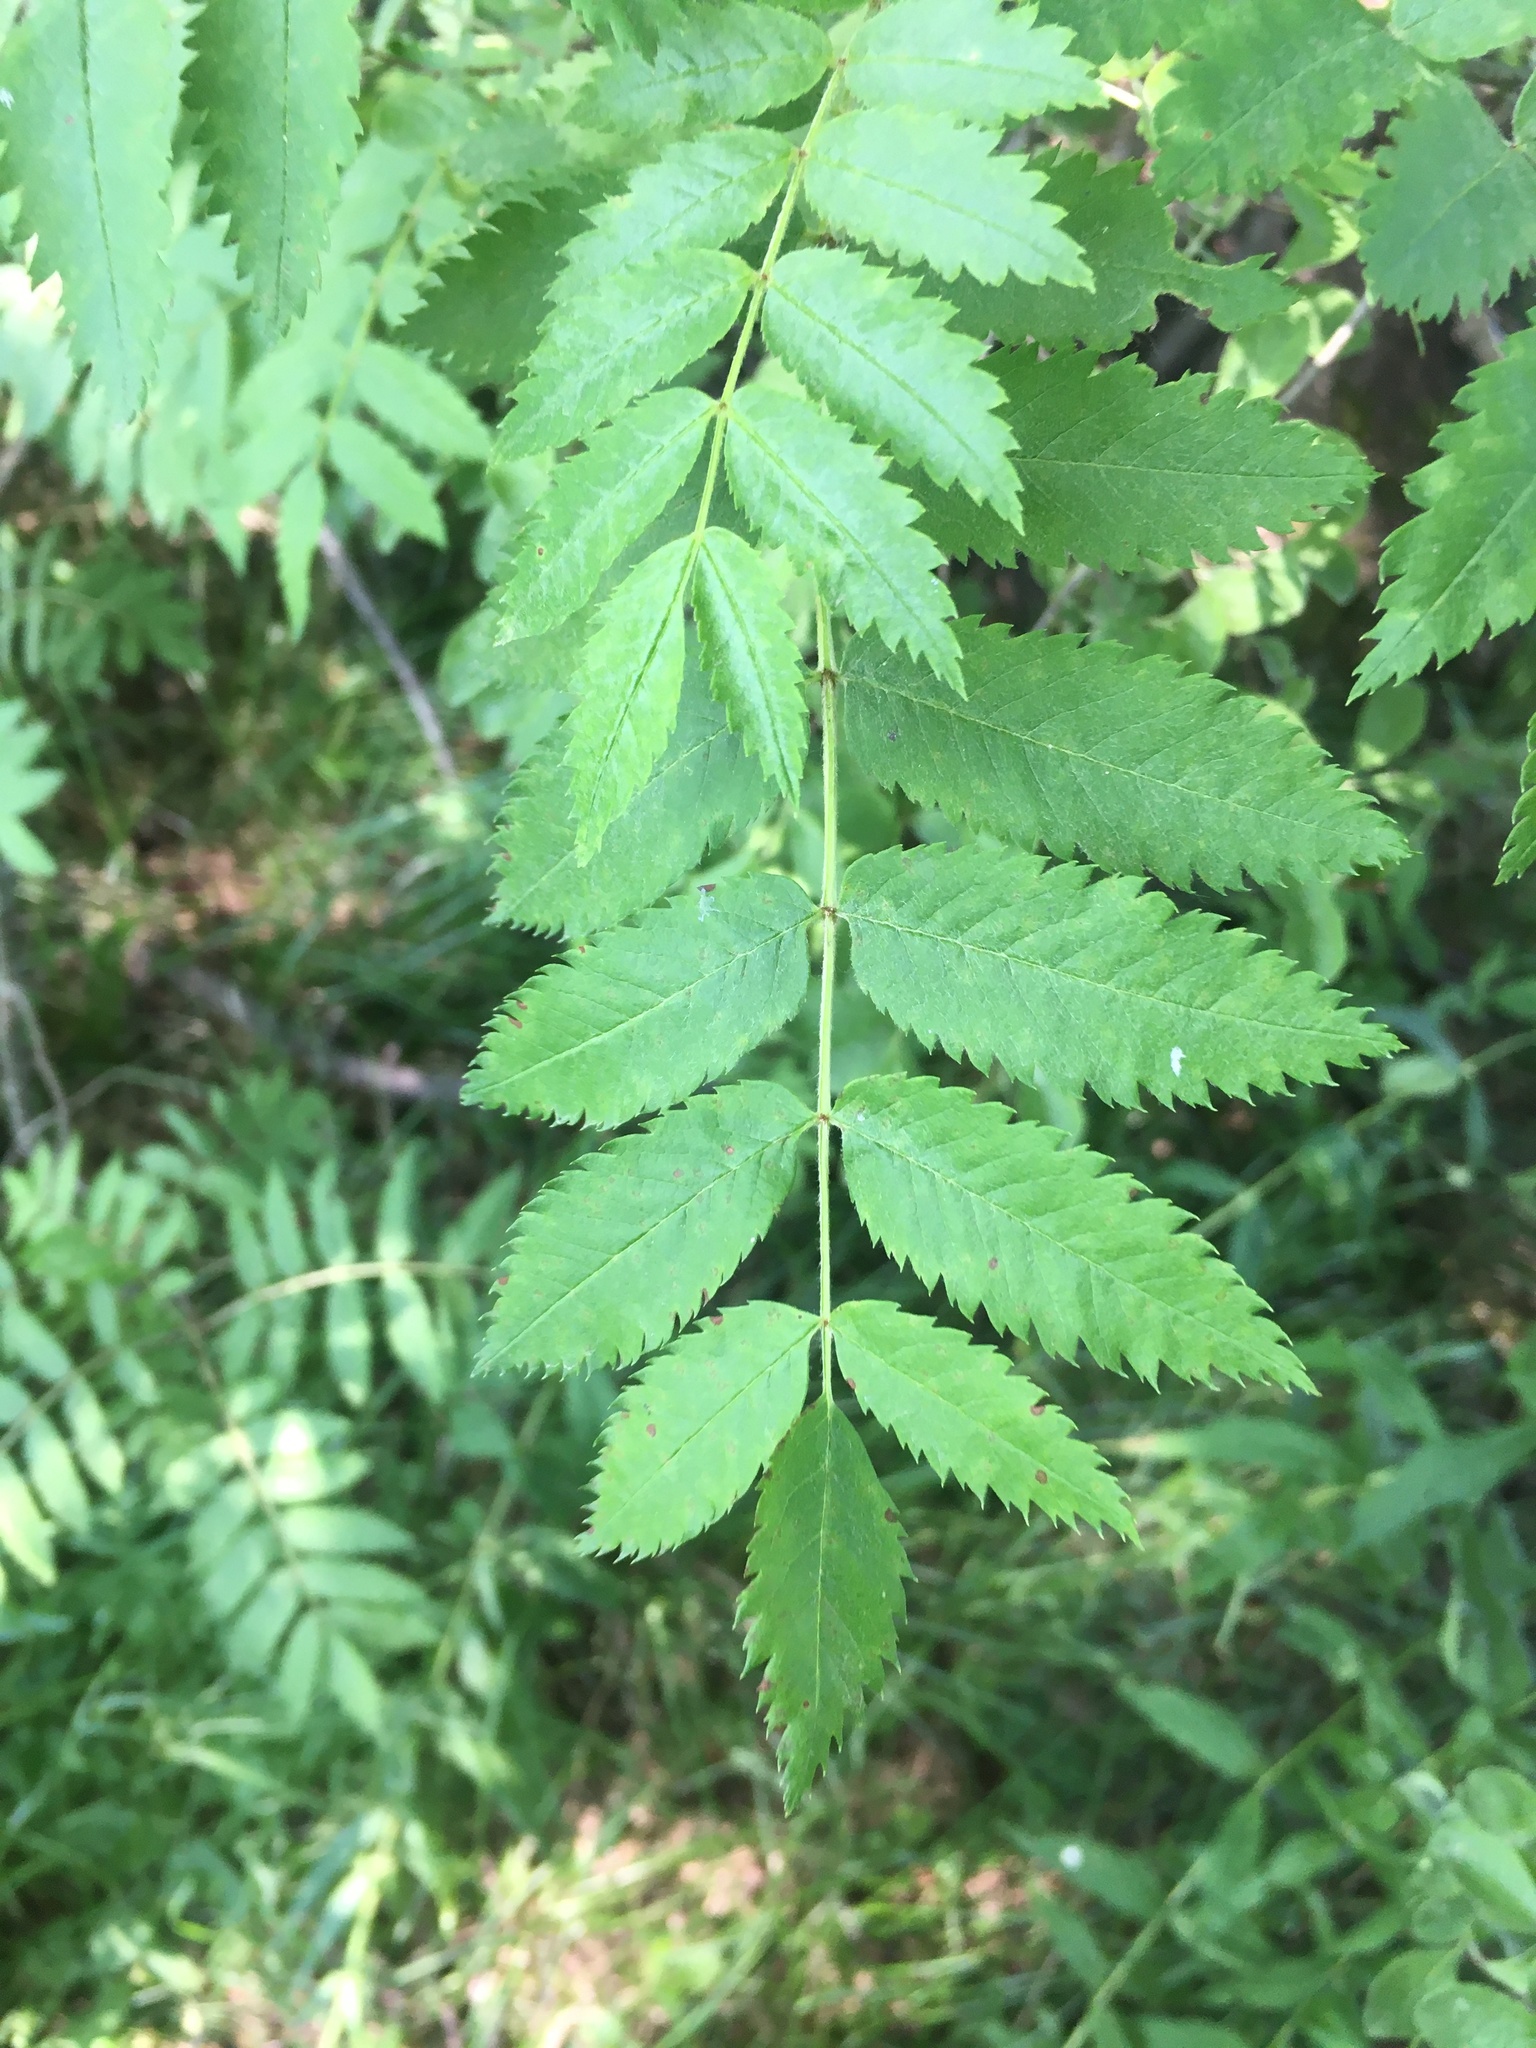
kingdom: Plantae
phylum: Tracheophyta
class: Magnoliopsida
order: Rosales
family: Rosaceae
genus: Sorbus
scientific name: Sorbus aucuparia
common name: Rowan
